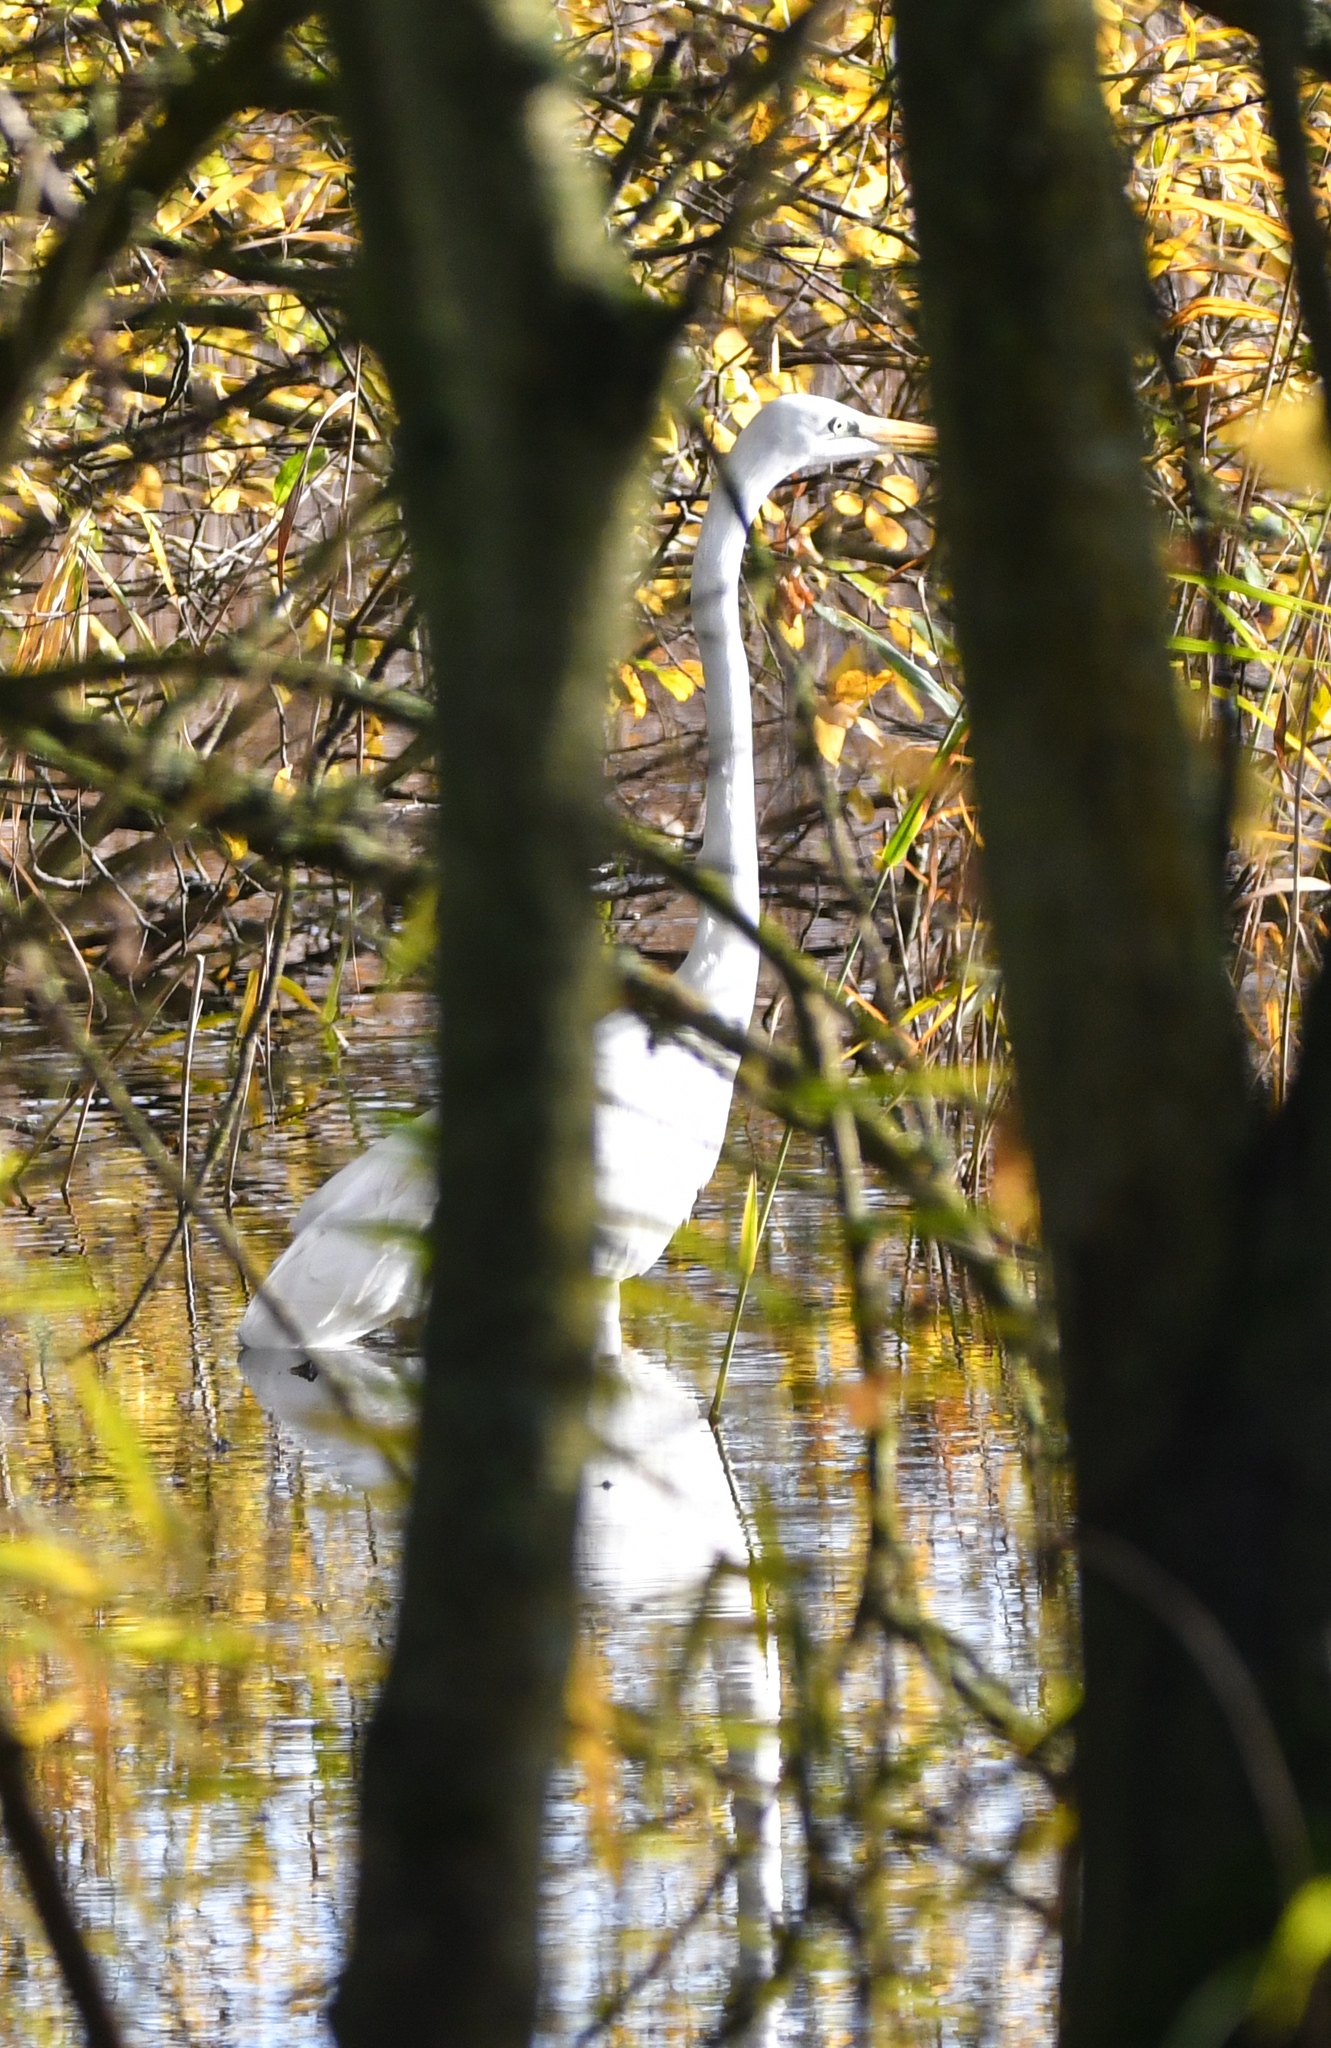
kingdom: Animalia
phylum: Chordata
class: Aves
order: Pelecaniformes
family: Ardeidae
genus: Ardea
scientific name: Ardea alba
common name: Great egret
